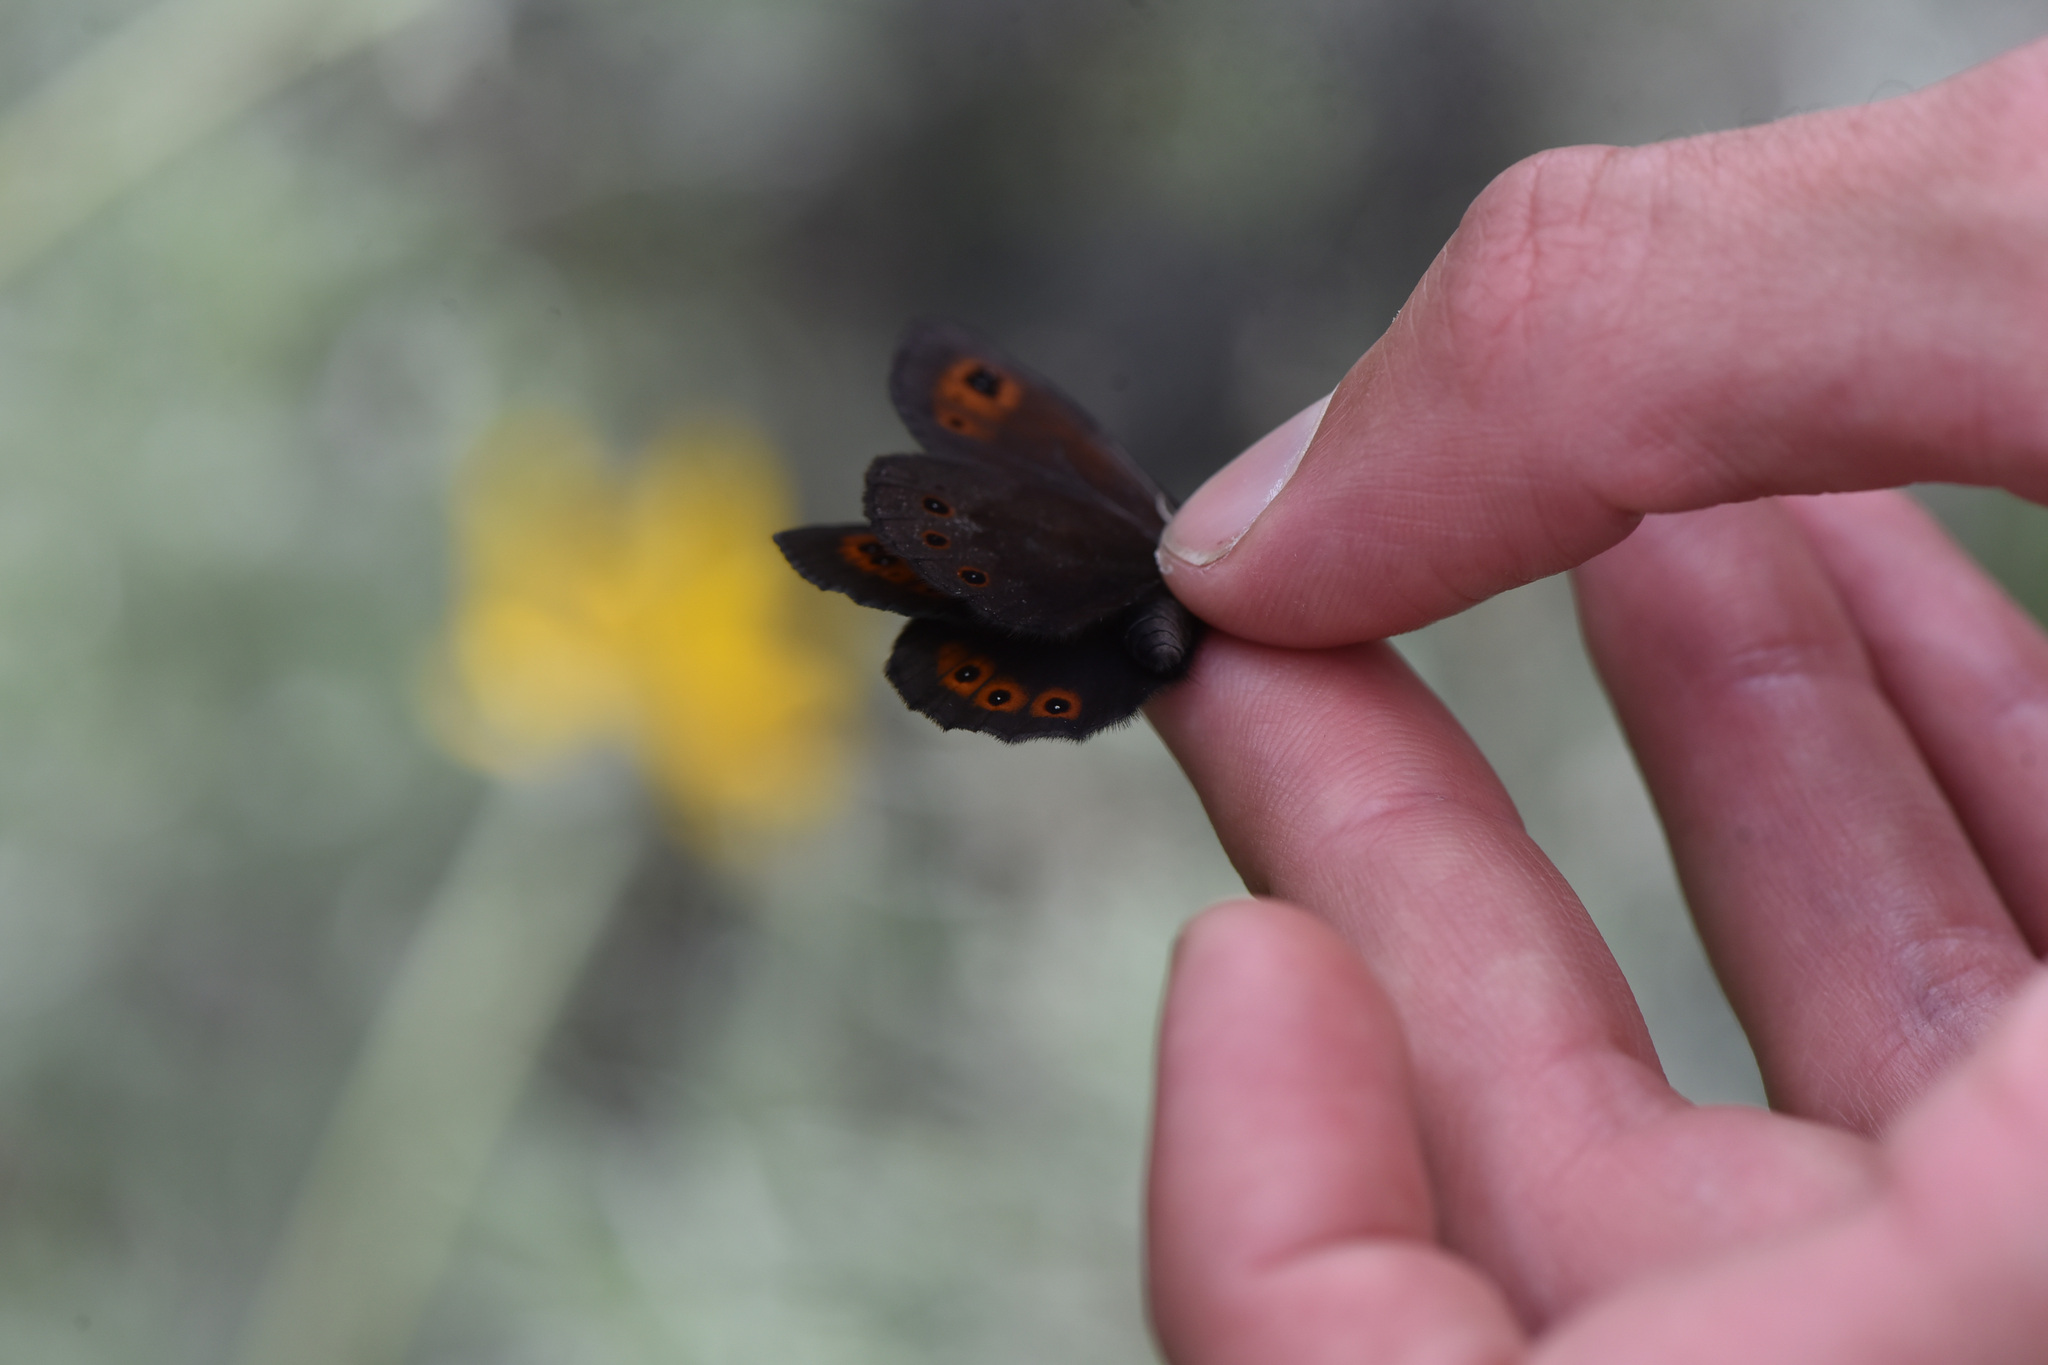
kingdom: Animalia
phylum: Arthropoda
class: Insecta
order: Lepidoptera
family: Nymphalidae
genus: Erebia
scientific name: Erebia epipsodea
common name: Common alpine
